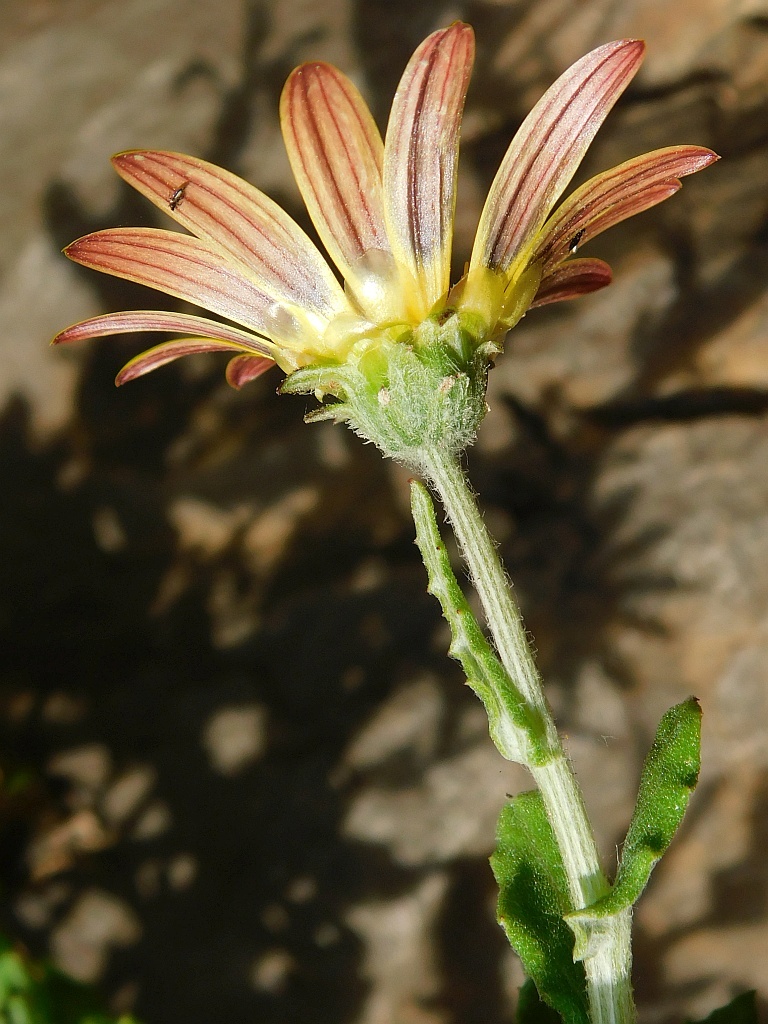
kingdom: Plantae
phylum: Tracheophyta
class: Magnoliopsida
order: Asterales
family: Asteraceae
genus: Arctotis
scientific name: Arctotis scabra
